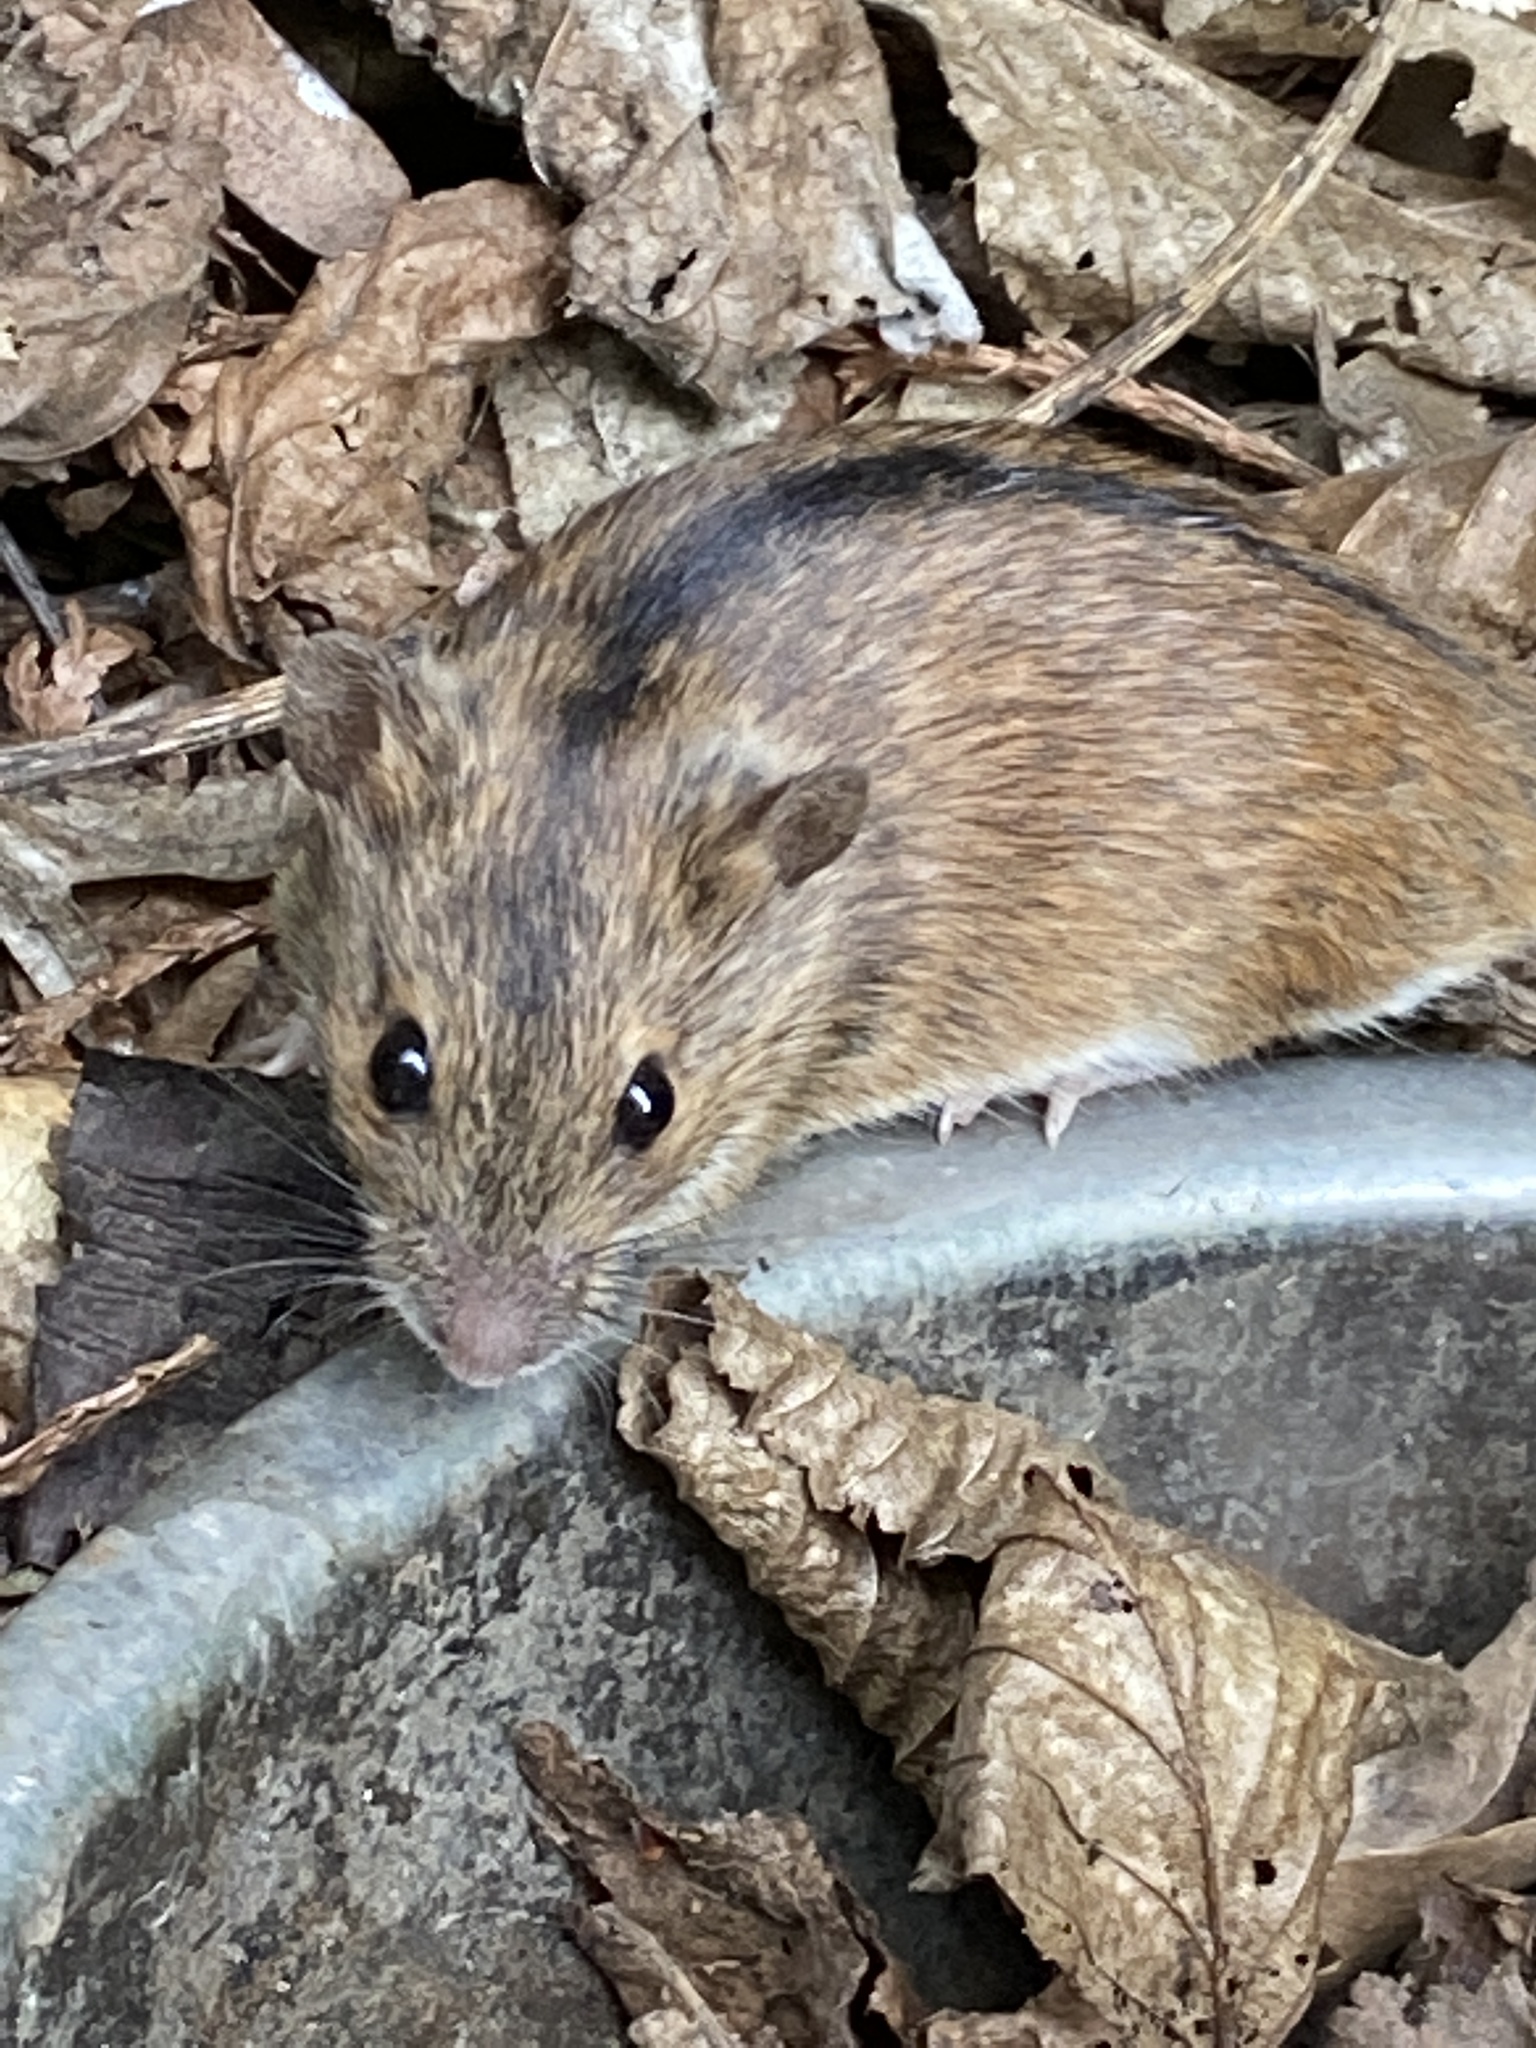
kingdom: Animalia
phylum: Chordata
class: Mammalia
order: Rodentia
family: Muridae
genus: Apodemus
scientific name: Apodemus agrarius
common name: Striped field mouse
